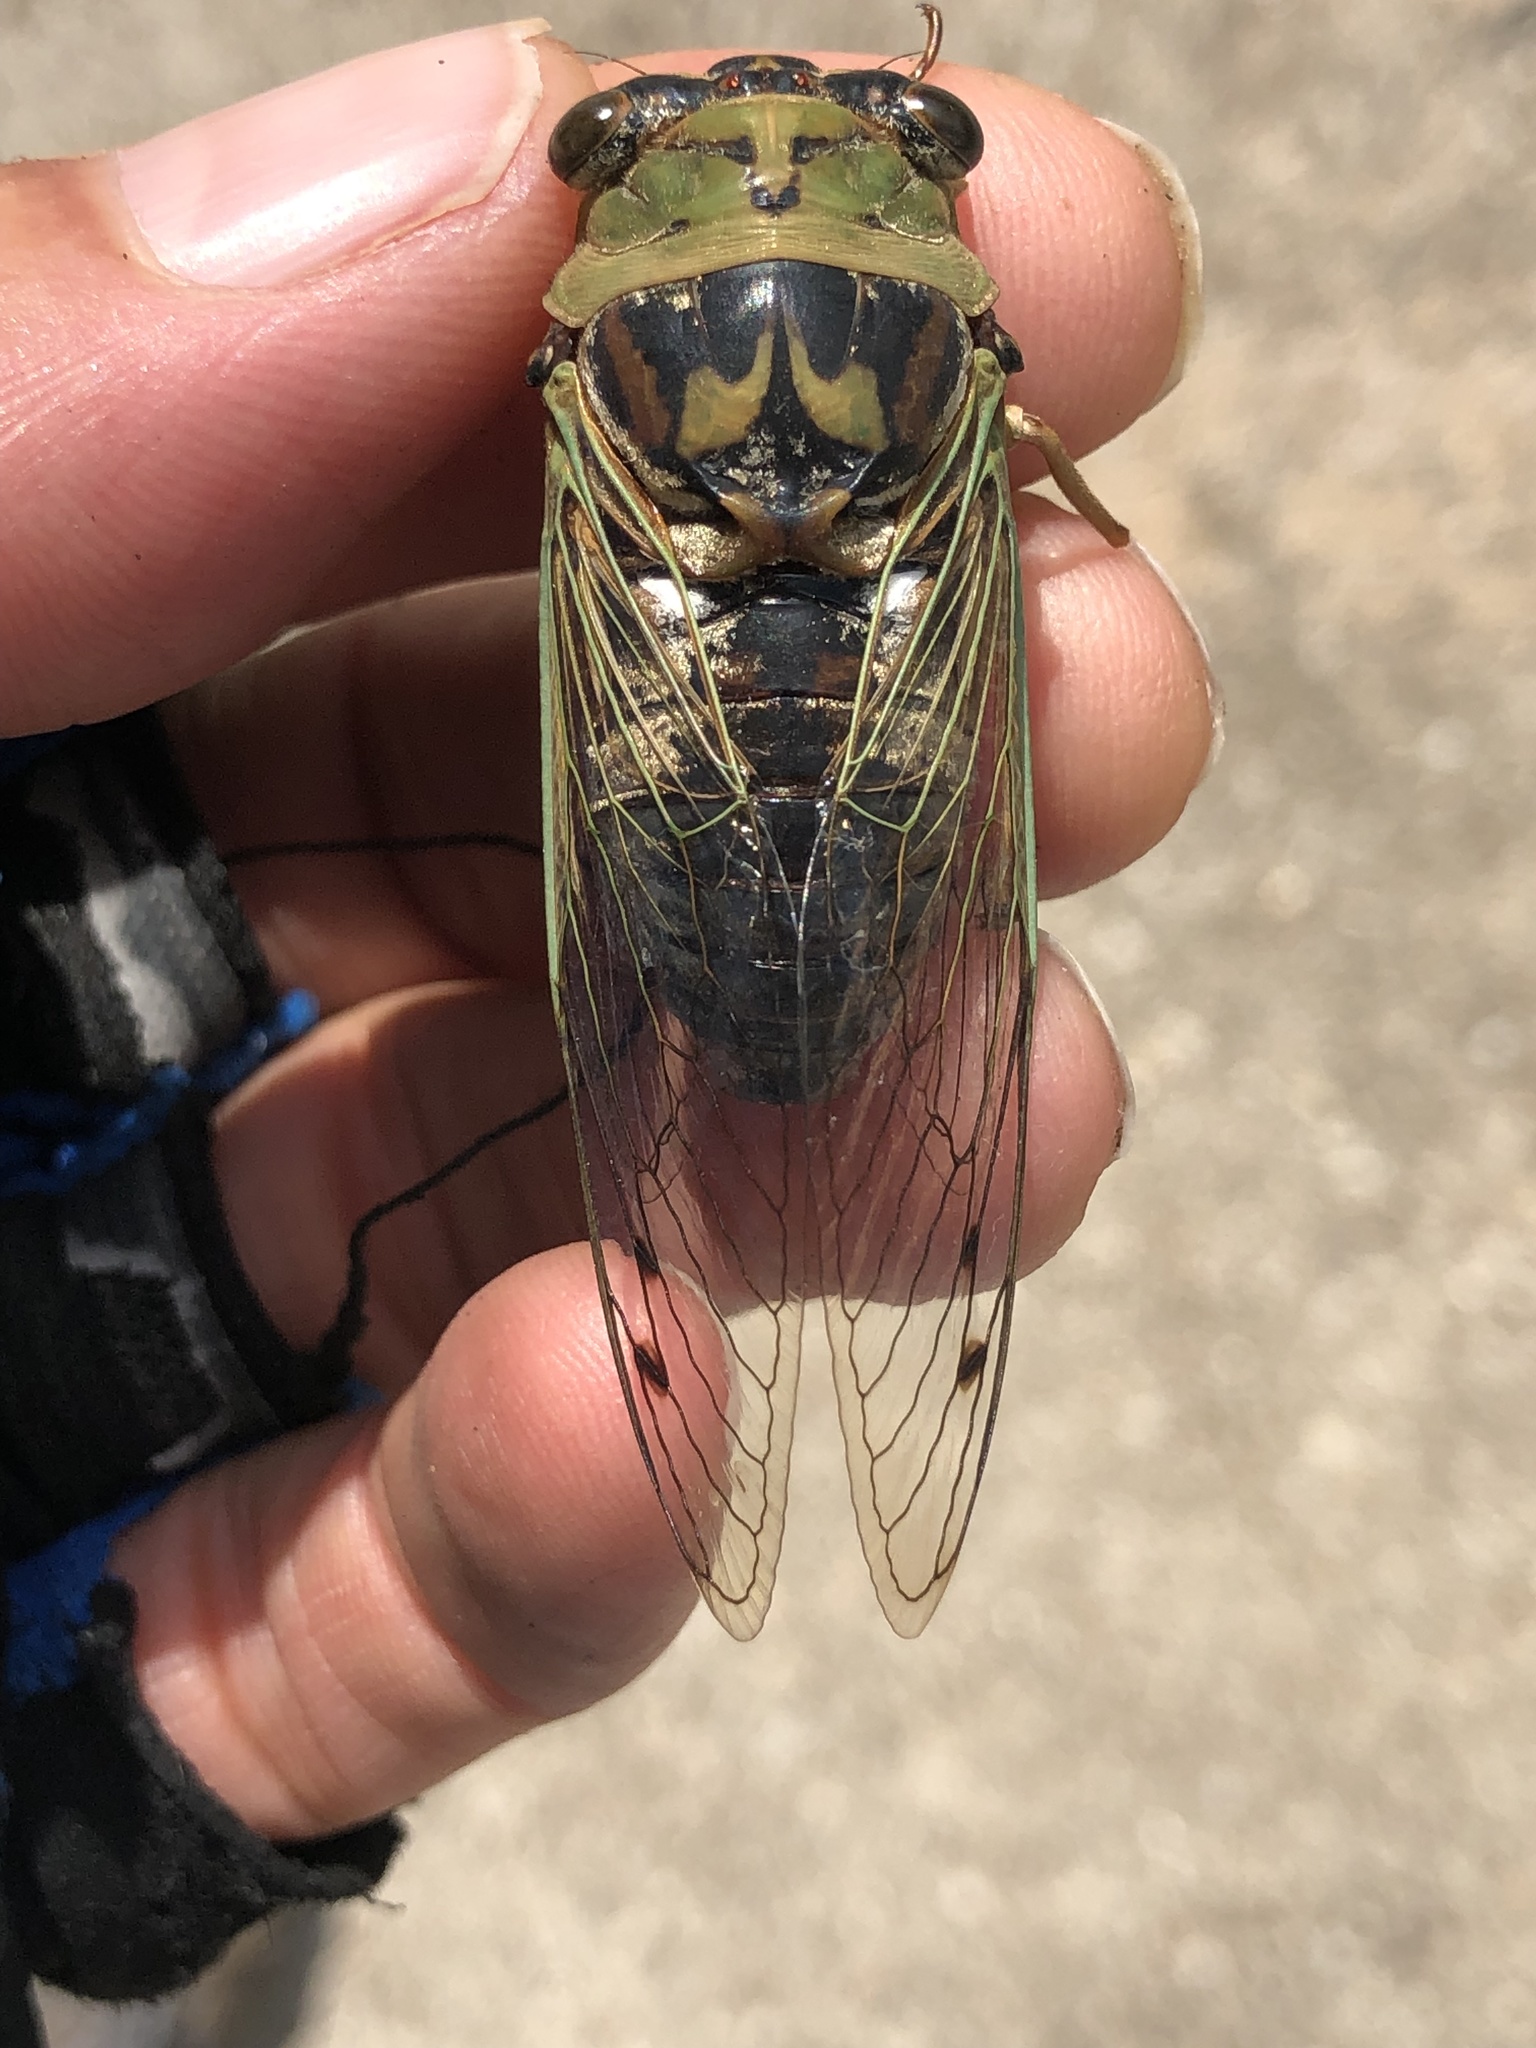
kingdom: Animalia
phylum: Arthropoda
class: Insecta
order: Hemiptera
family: Cicadidae
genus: Megatibicen
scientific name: Megatibicen resh
